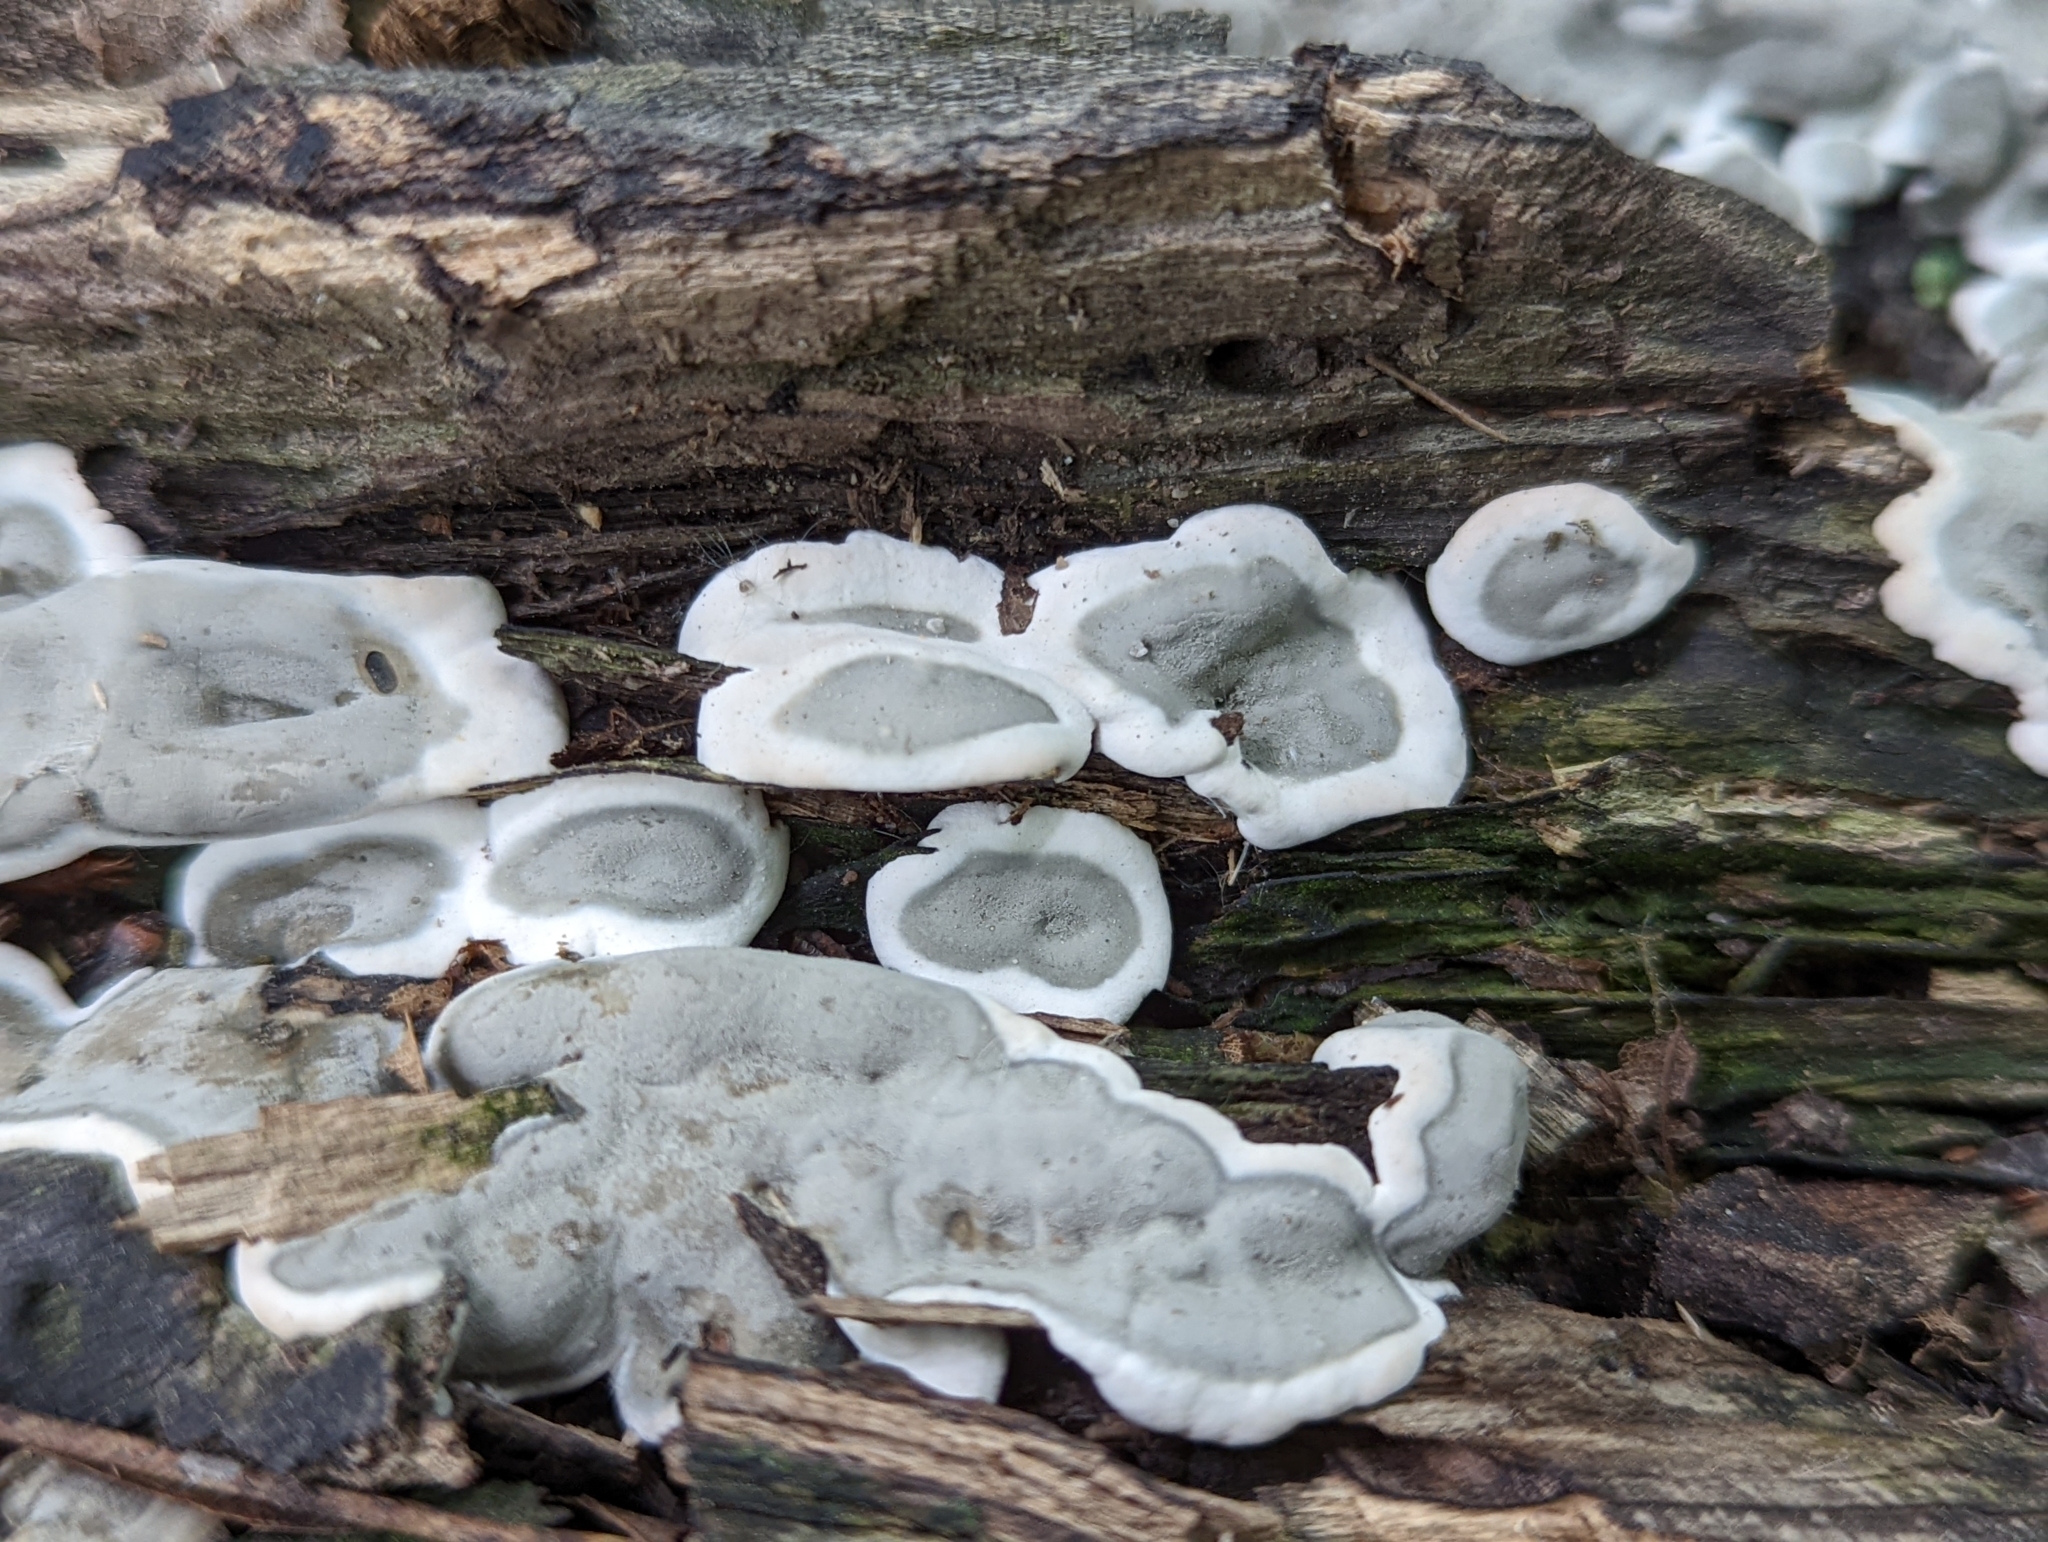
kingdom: Fungi
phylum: Ascomycota
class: Sordariomycetes
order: Xylariales
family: Xylariaceae
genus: Kretzschmaria
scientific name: Kretzschmaria deusta
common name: Brittle cinder
